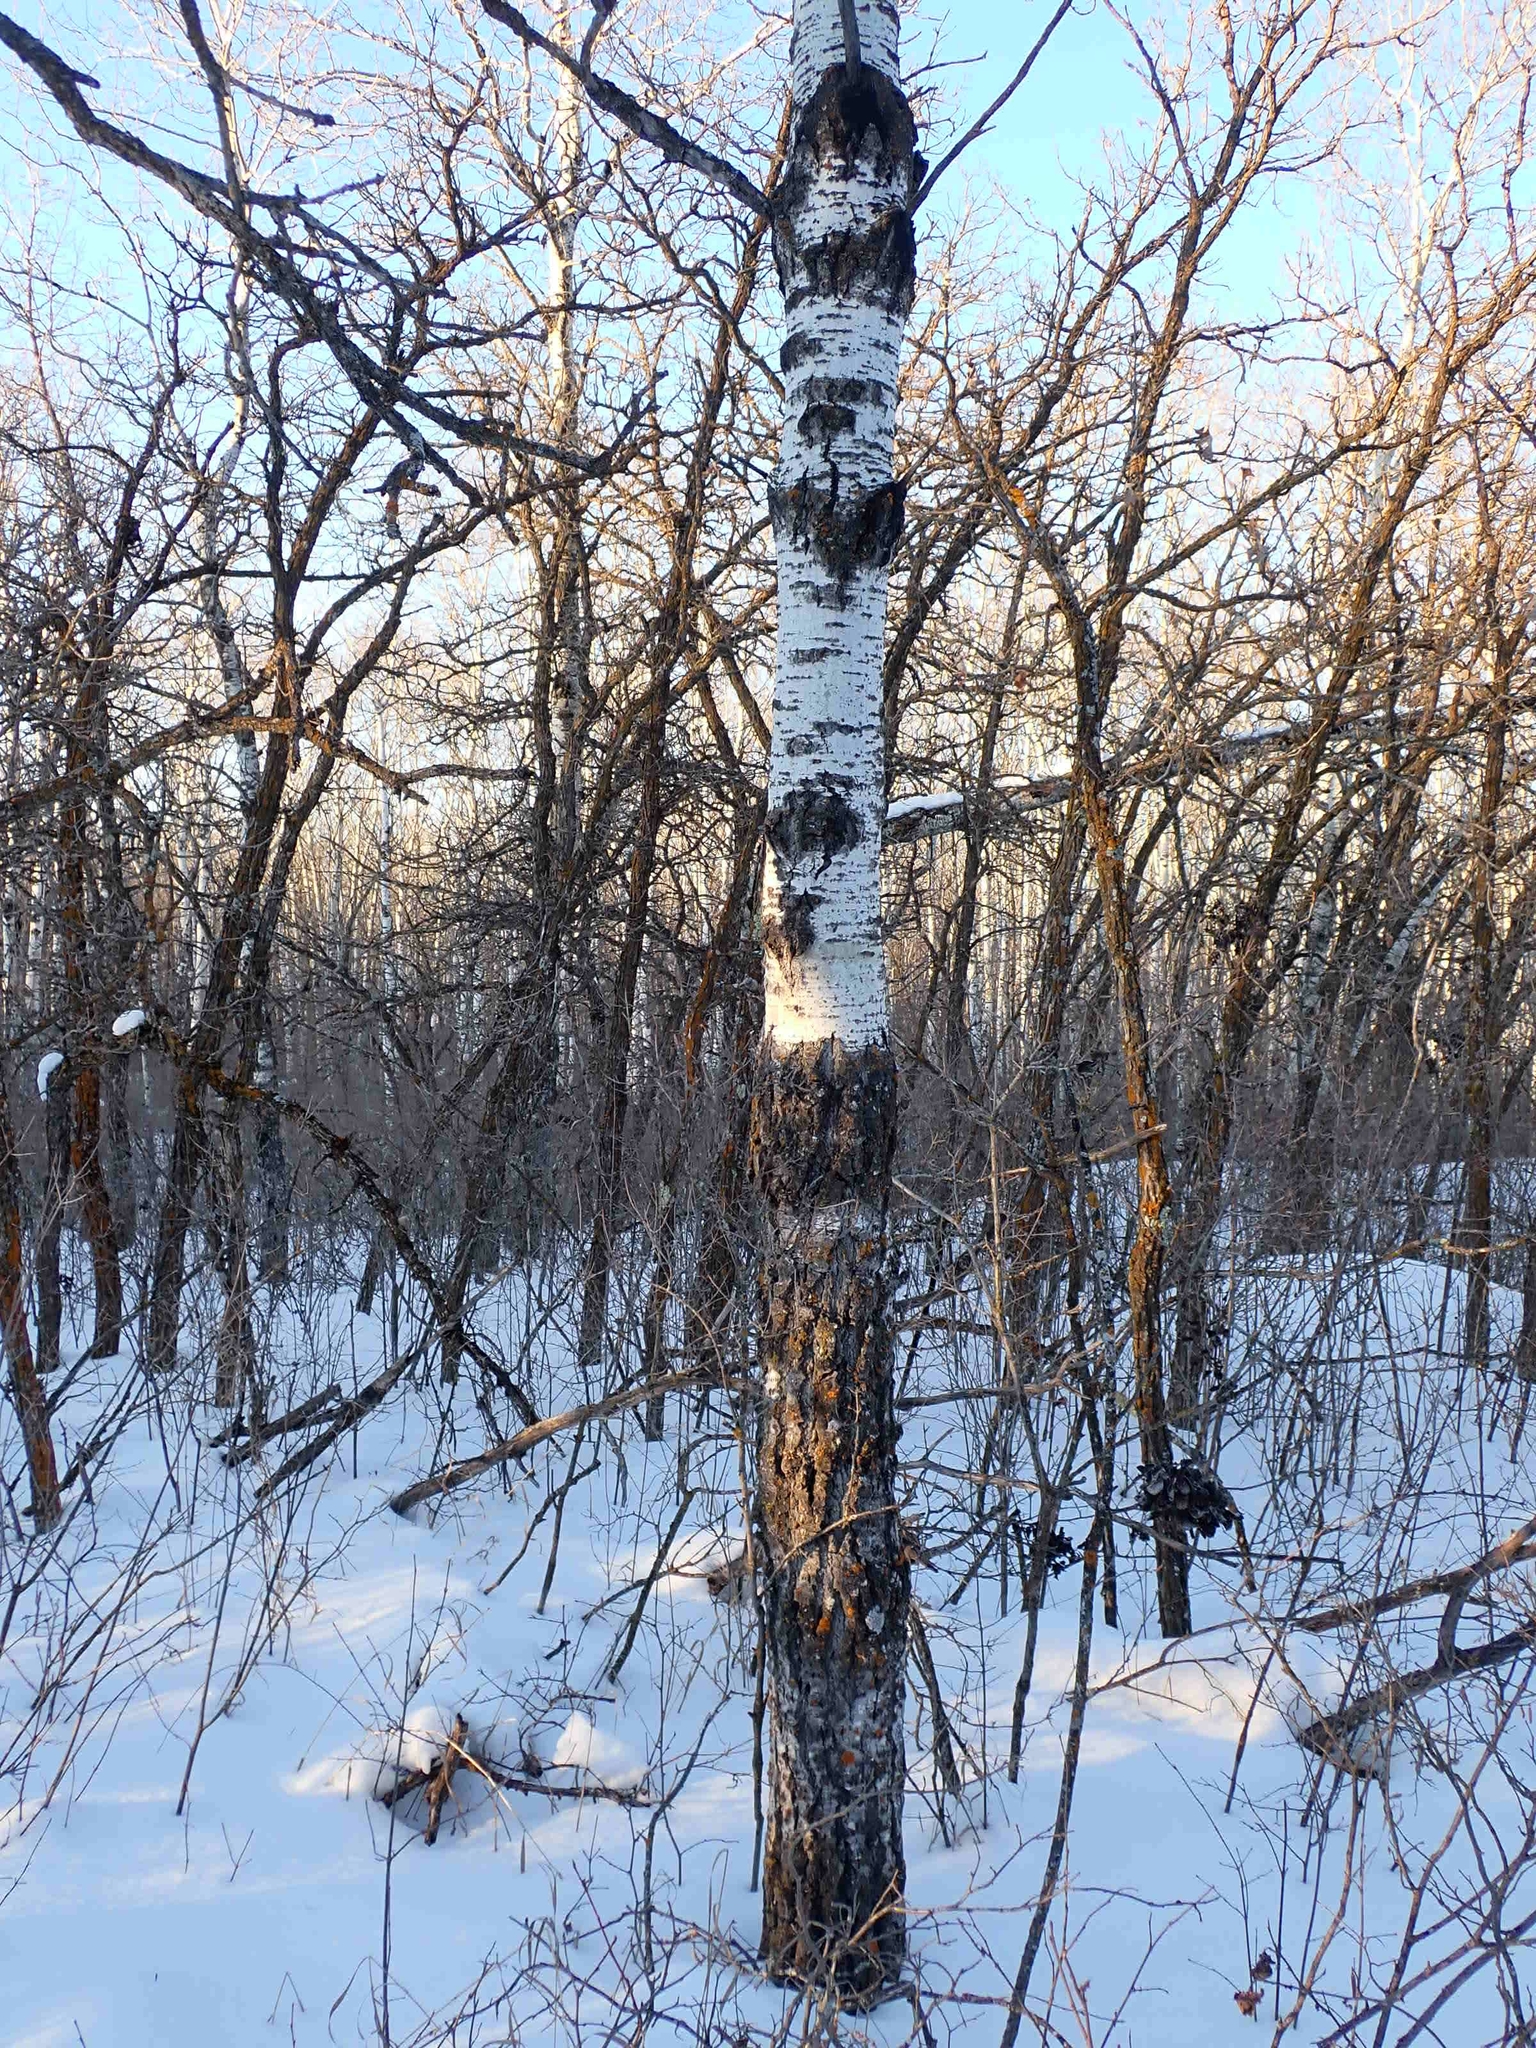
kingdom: Plantae
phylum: Tracheophyta
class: Magnoliopsida
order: Malpighiales
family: Salicaceae
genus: Populus
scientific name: Populus tremuloides
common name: Quaking aspen
